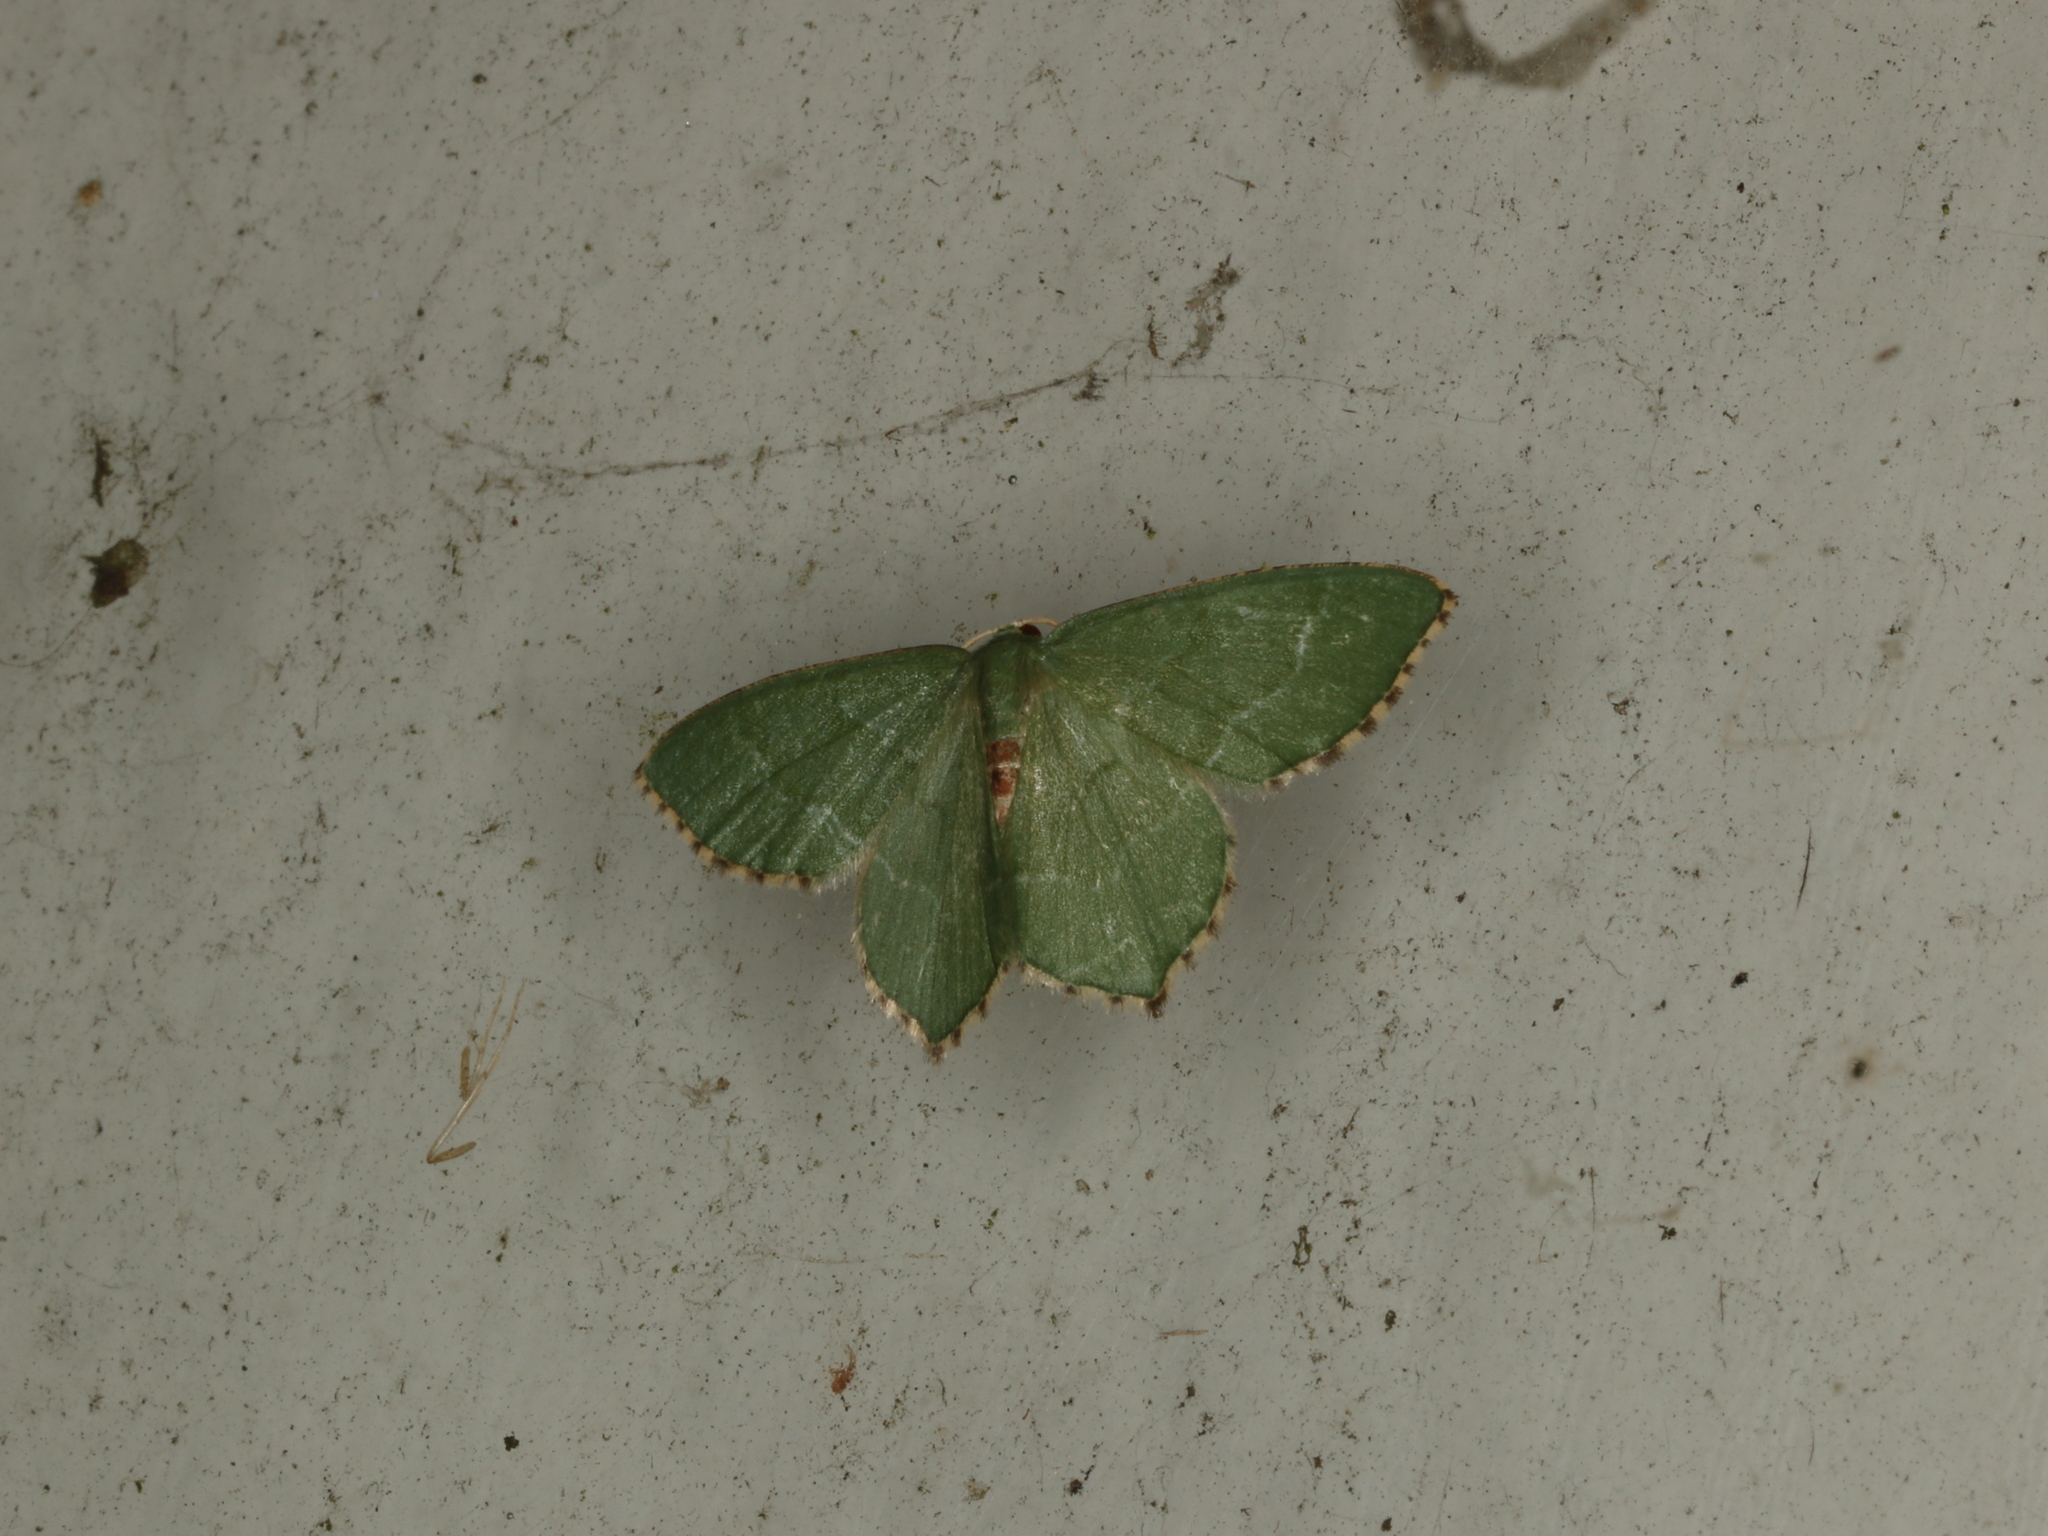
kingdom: Animalia
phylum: Arthropoda
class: Insecta
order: Lepidoptera
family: Geometridae
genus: Hemithea
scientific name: Hemithea aestivaria
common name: Common emerald
